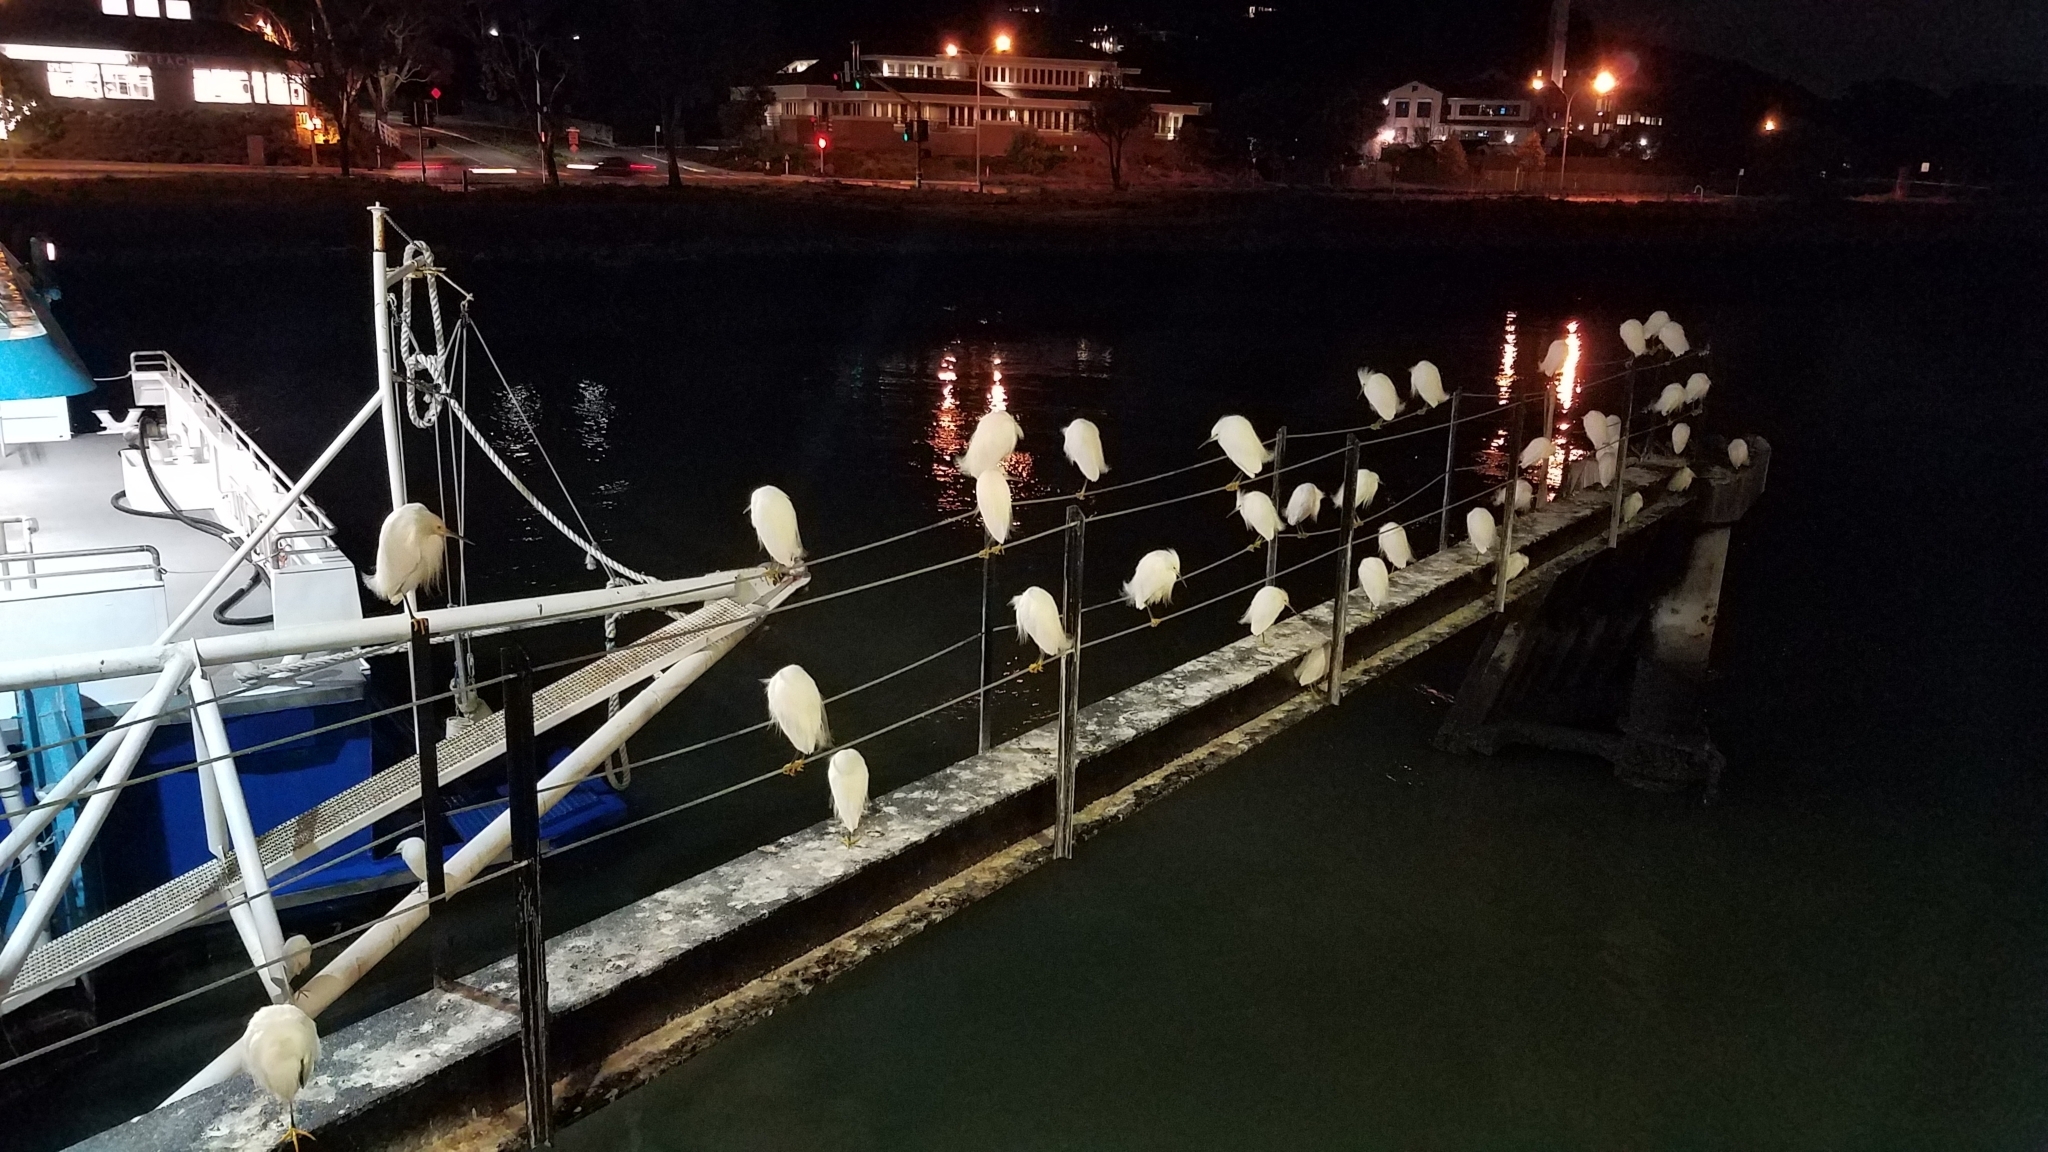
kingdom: Animalia
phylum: Chordata
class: Aves
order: Pelecaniformes
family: Ardeidae
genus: Egretta
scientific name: Egretta thula
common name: Snowy egret
